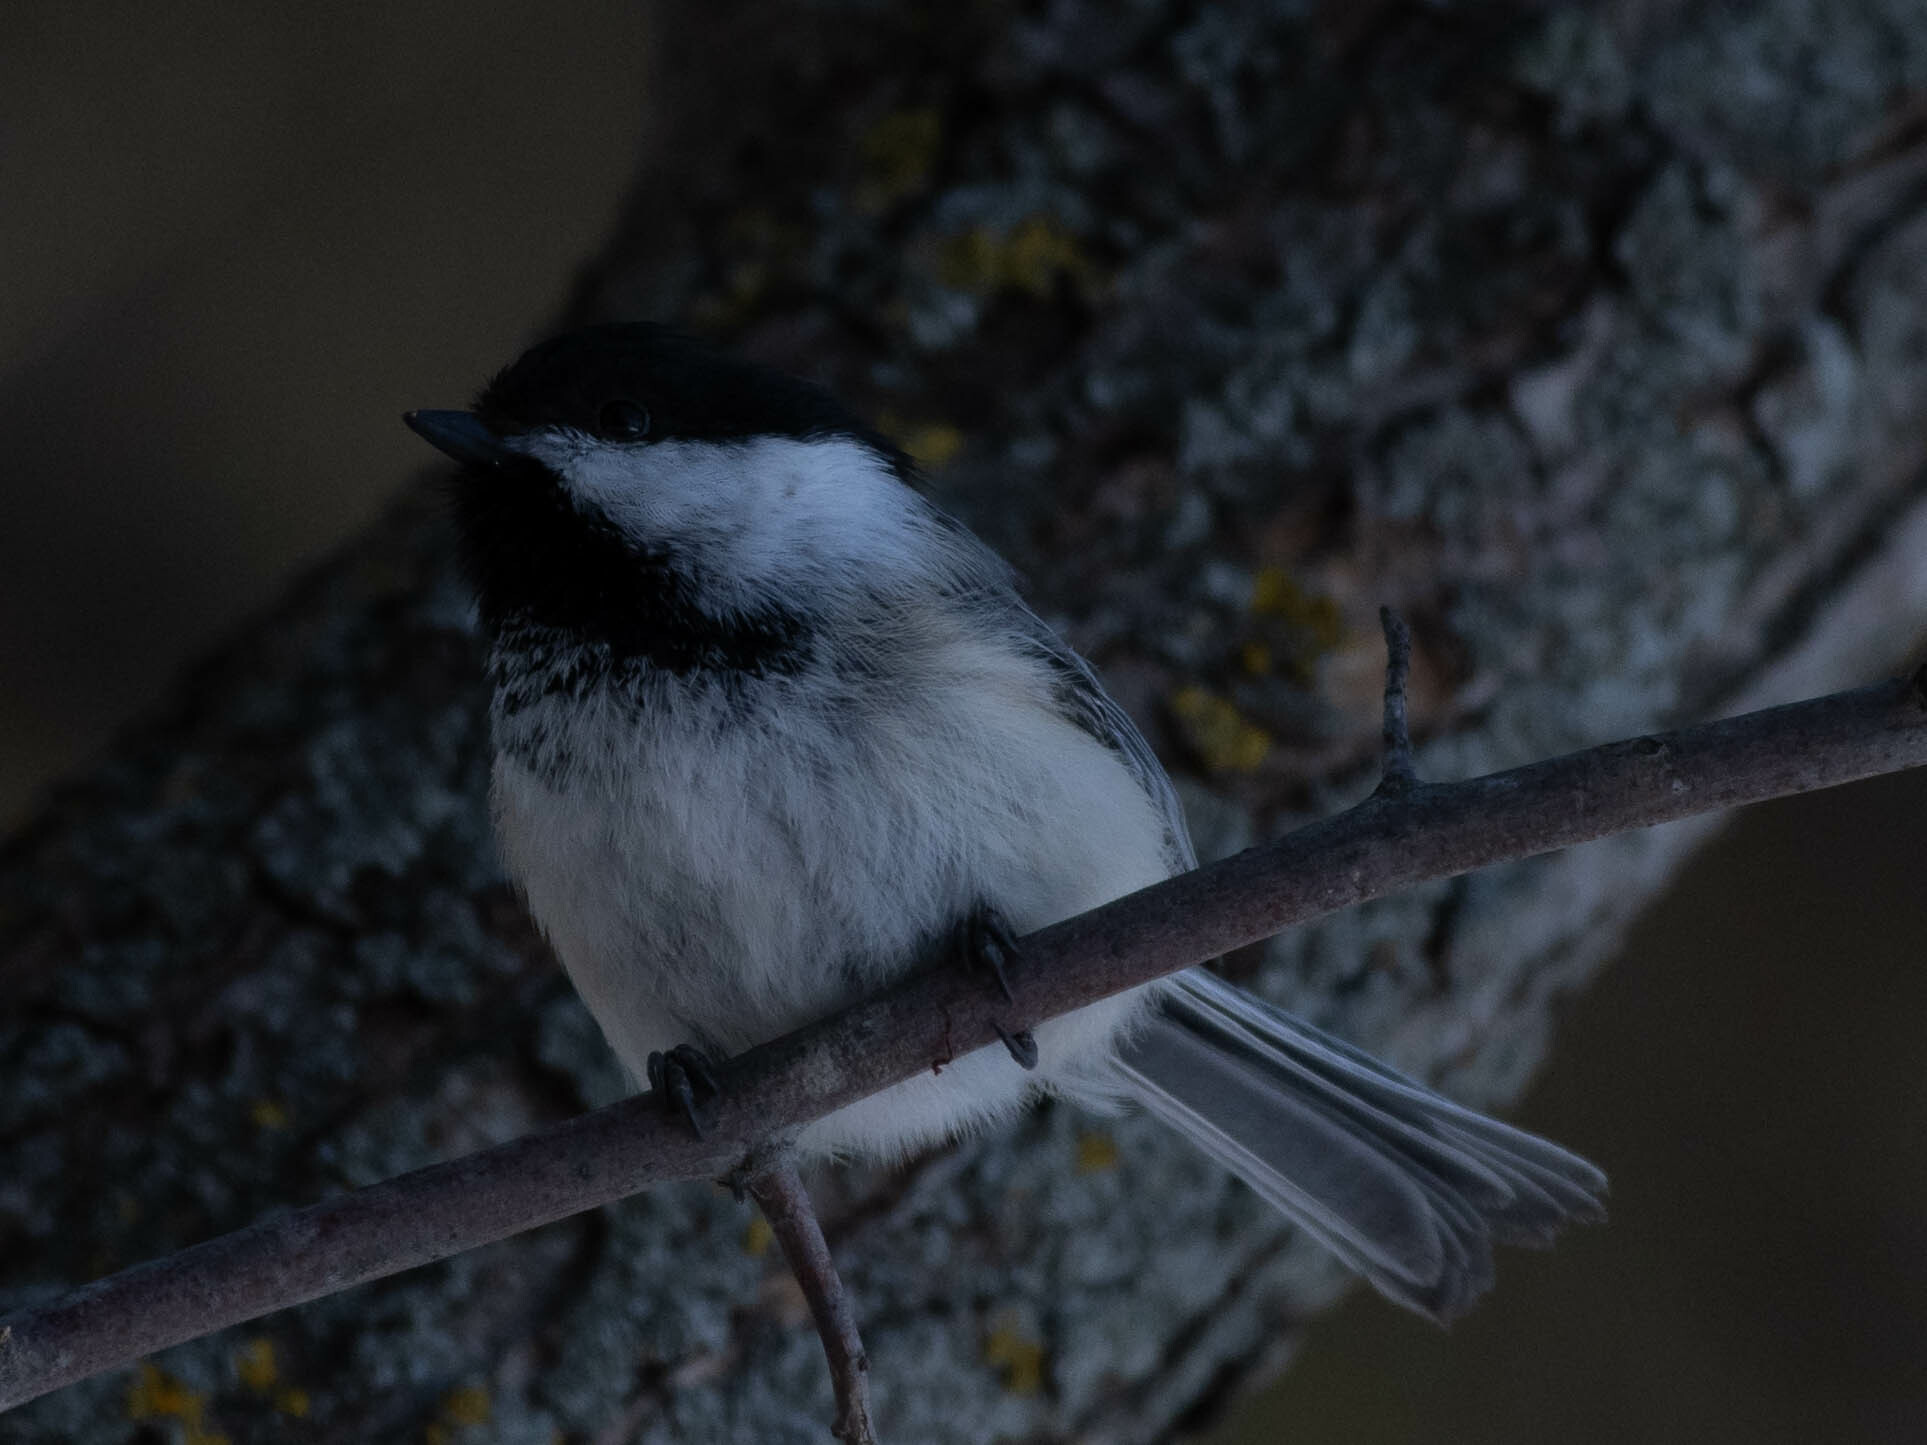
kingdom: Animalia
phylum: Chordata
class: Aves
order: Passeriformes
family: Paridae
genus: Poecile
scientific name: Poecile atricapillus
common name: Black-capped chickadee
